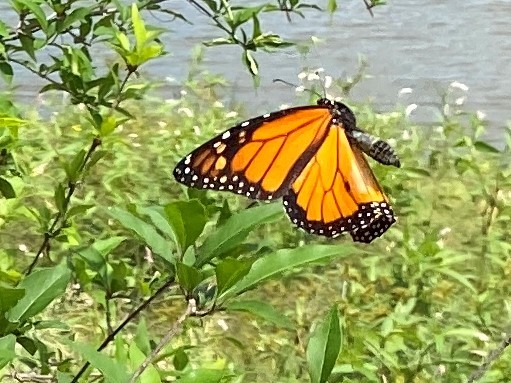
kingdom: Animalia
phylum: Arthropoda
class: Insecta
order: Lepidoptera
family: Nymphalidae
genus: Danaus
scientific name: Danaus plexippus
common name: Monarch
